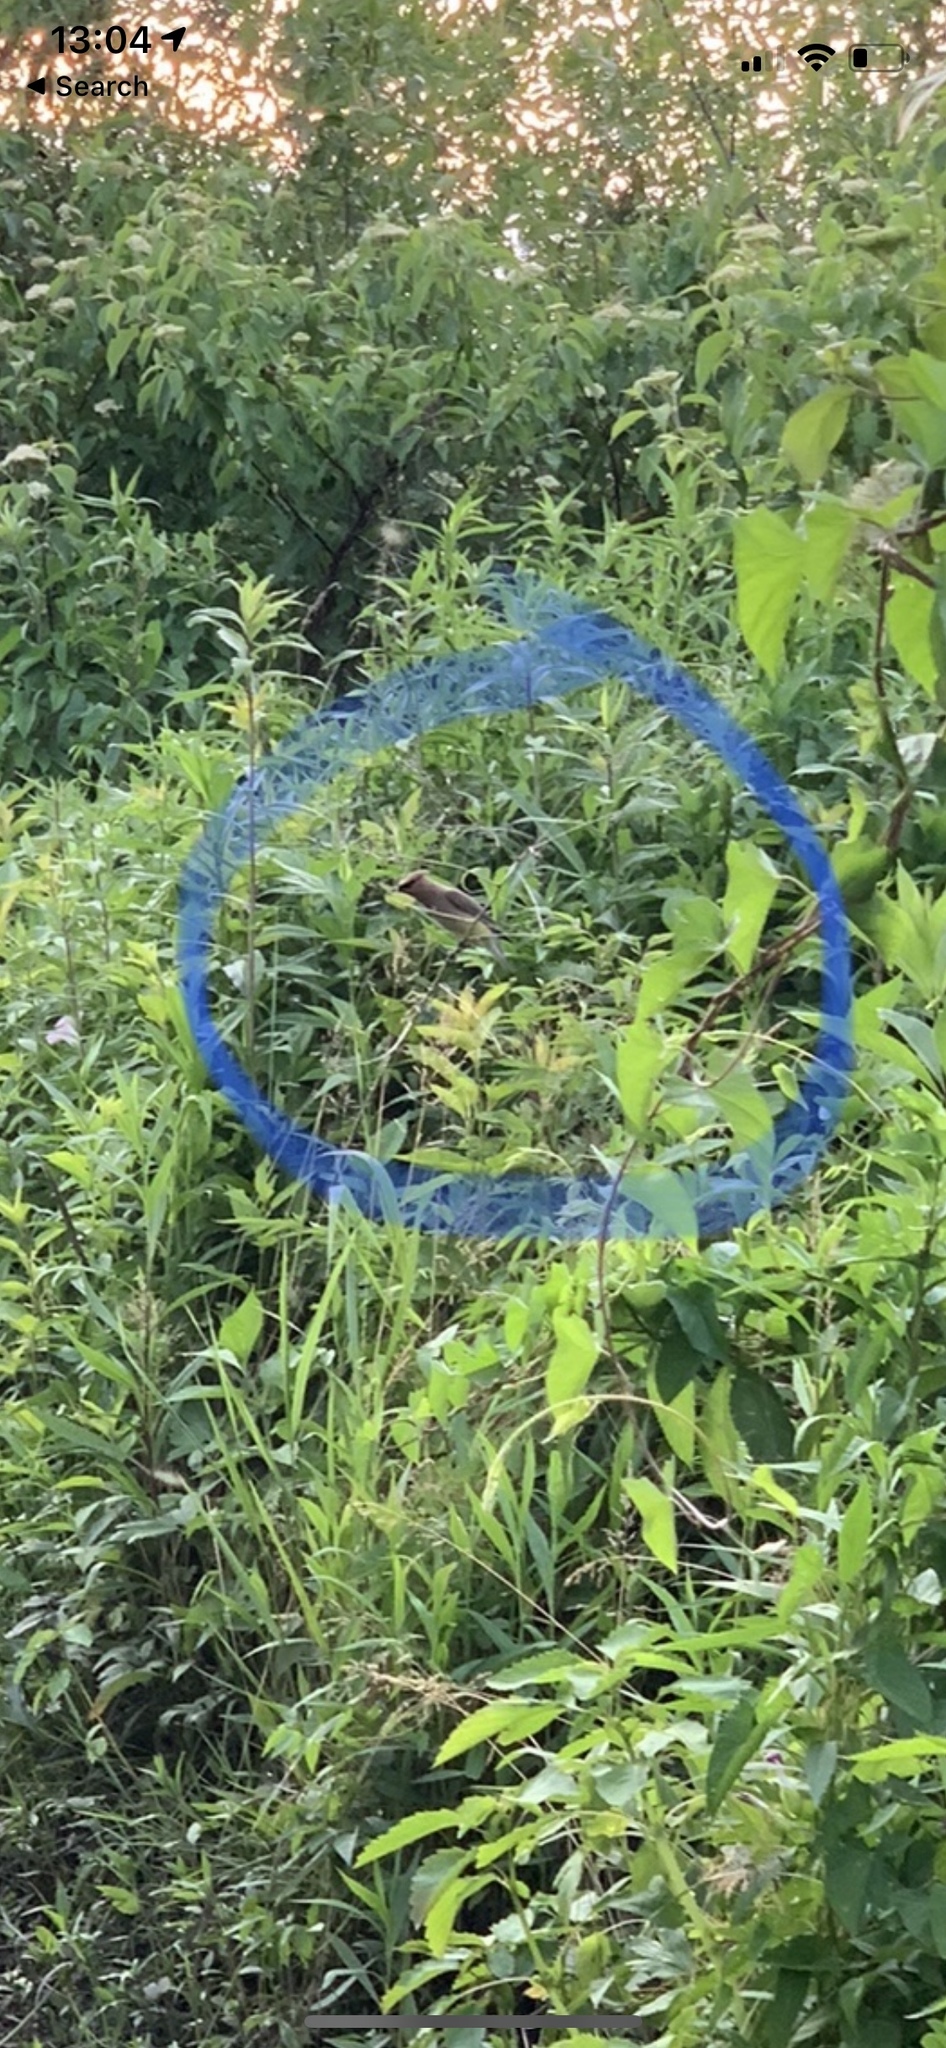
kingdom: Animalia
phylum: Chordata
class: Aves
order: Passeriformes
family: Bombycillidae
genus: Bombycilla
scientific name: Bombycilla cedrorum
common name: Cedar waxwing
